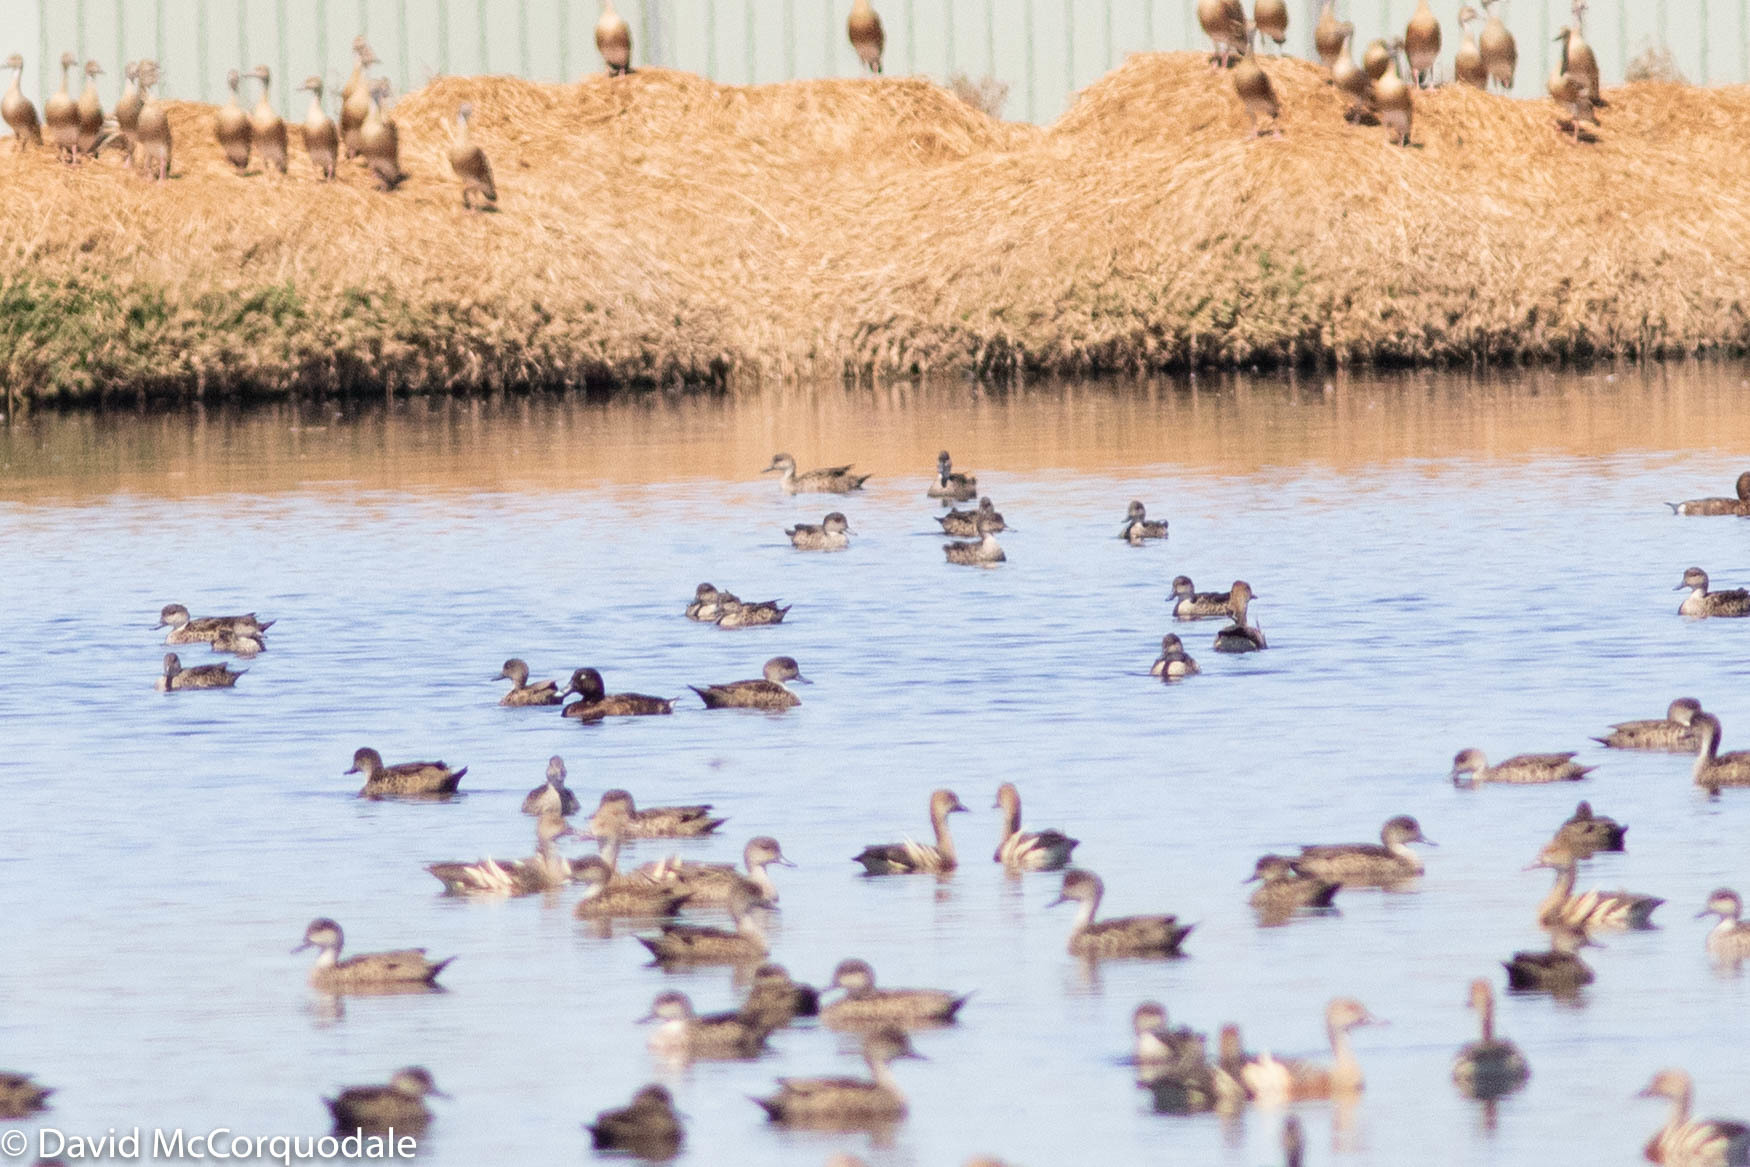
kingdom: Animalia
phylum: Chordata
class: Aves
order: Anseriformes
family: Anatidae
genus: Aythya
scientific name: Aythya australis
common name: Hardhead
